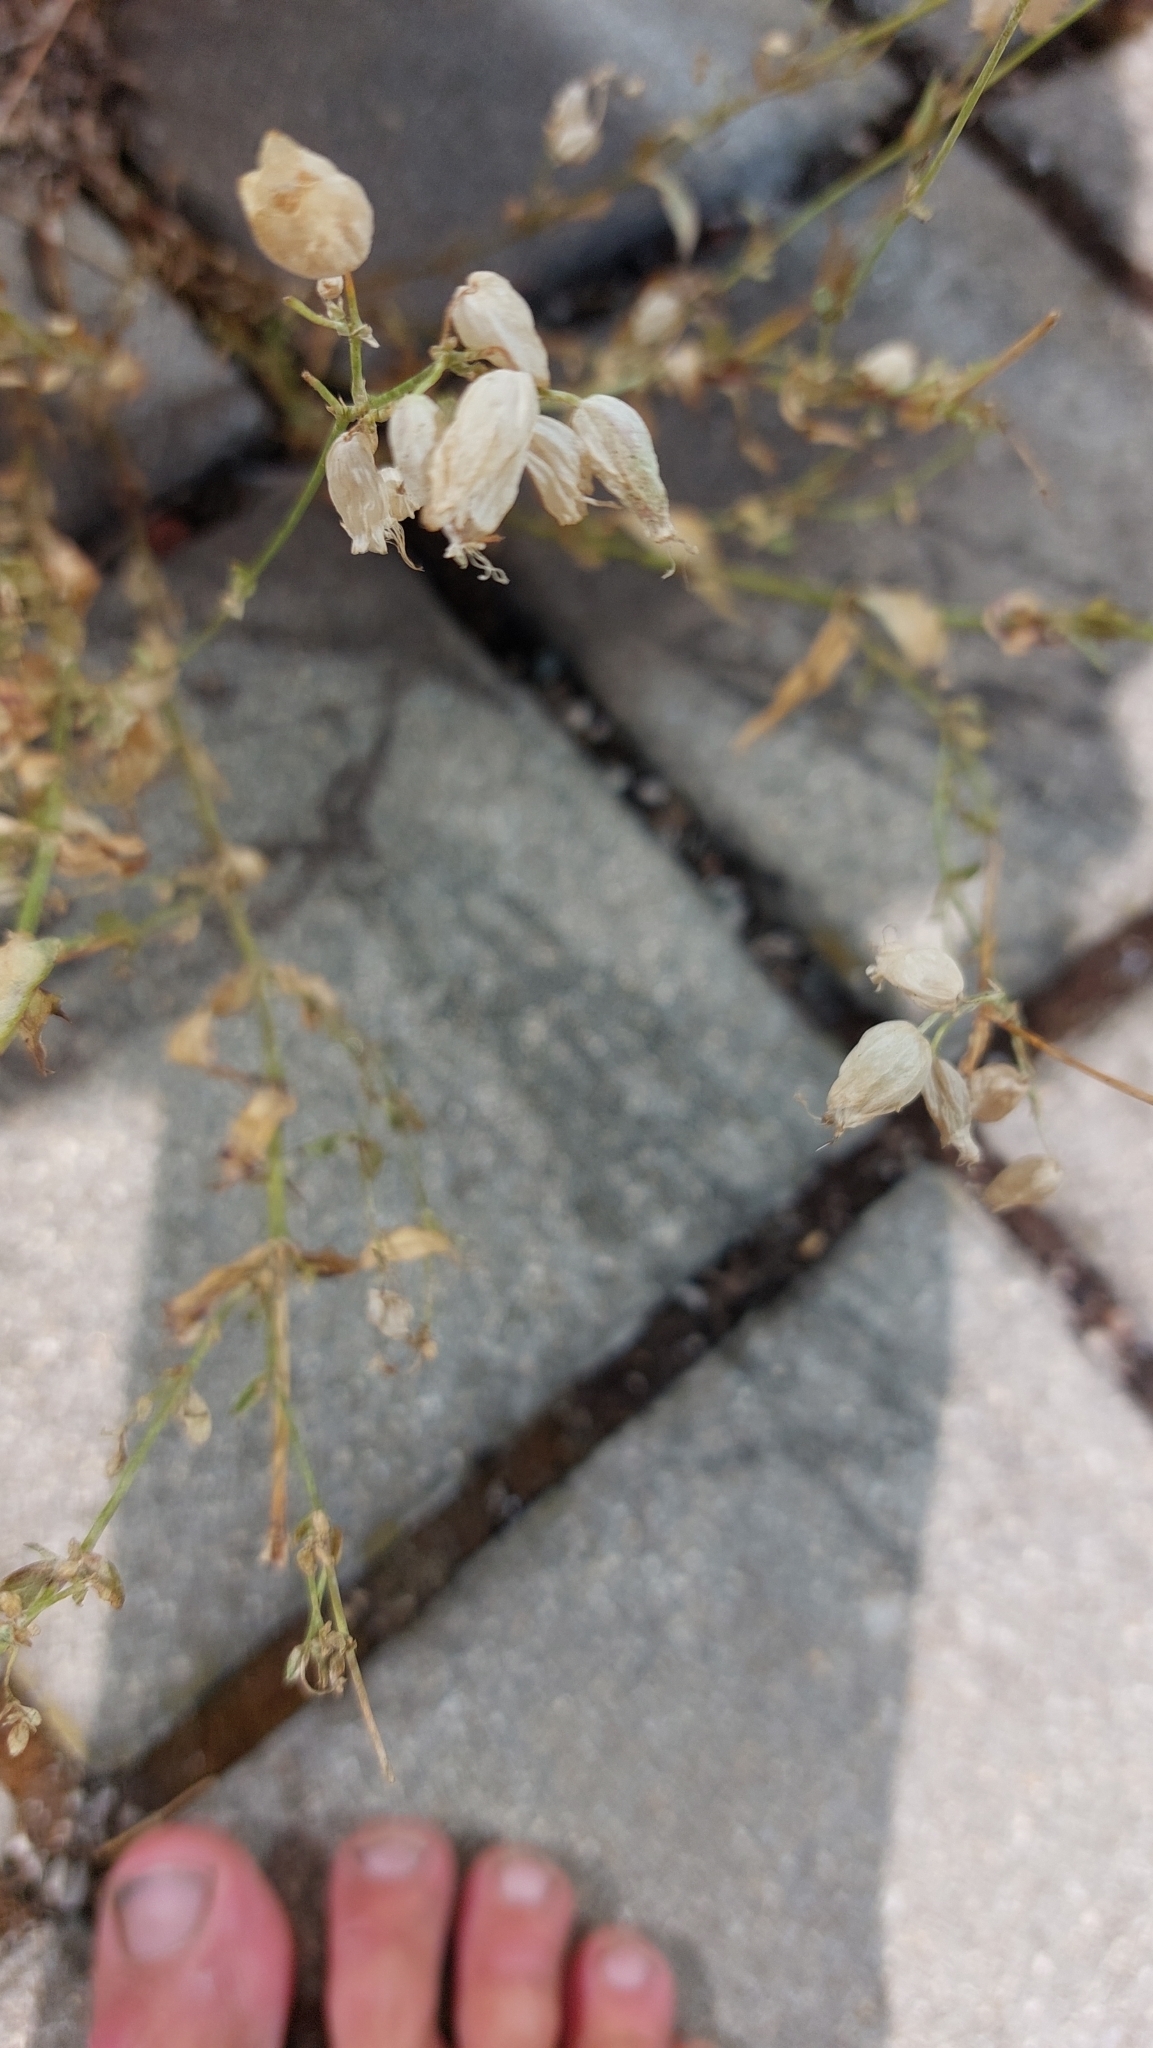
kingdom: Plantae
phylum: Tracheophyta
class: Magnoliopsida
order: Caryophyllales
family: Caryophyllaceae
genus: Silene
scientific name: Silene vulgaris
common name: Bladder campion
